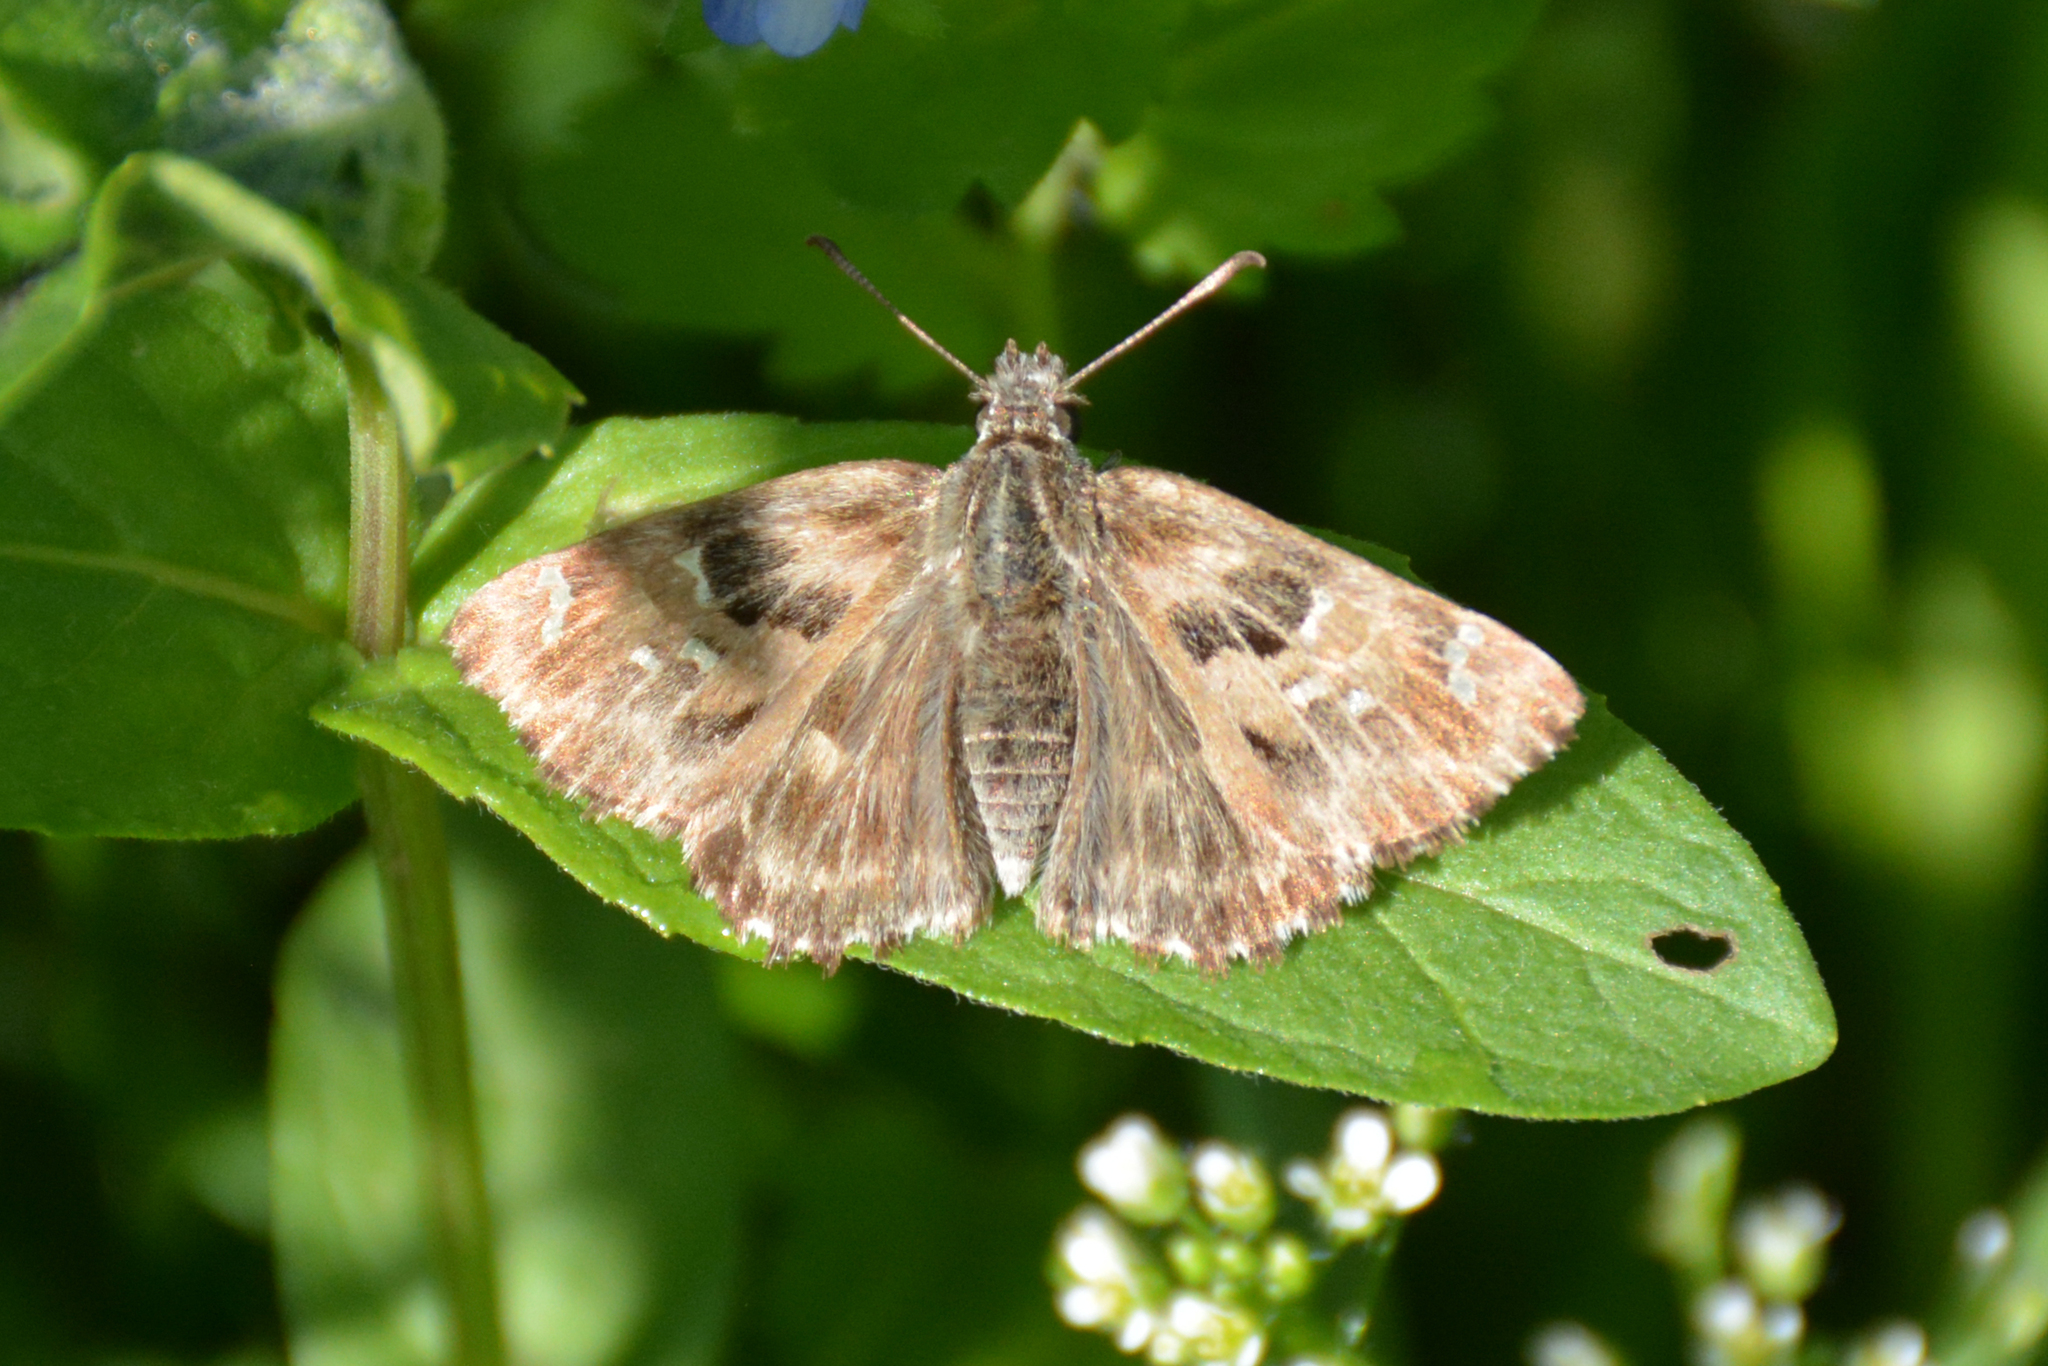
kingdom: Animalia
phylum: Arthropoda
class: Insecta
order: Lepidoptera
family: Hesperiidae
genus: Carcharodus
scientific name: Carcharodus alceae
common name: Mallow skipper
